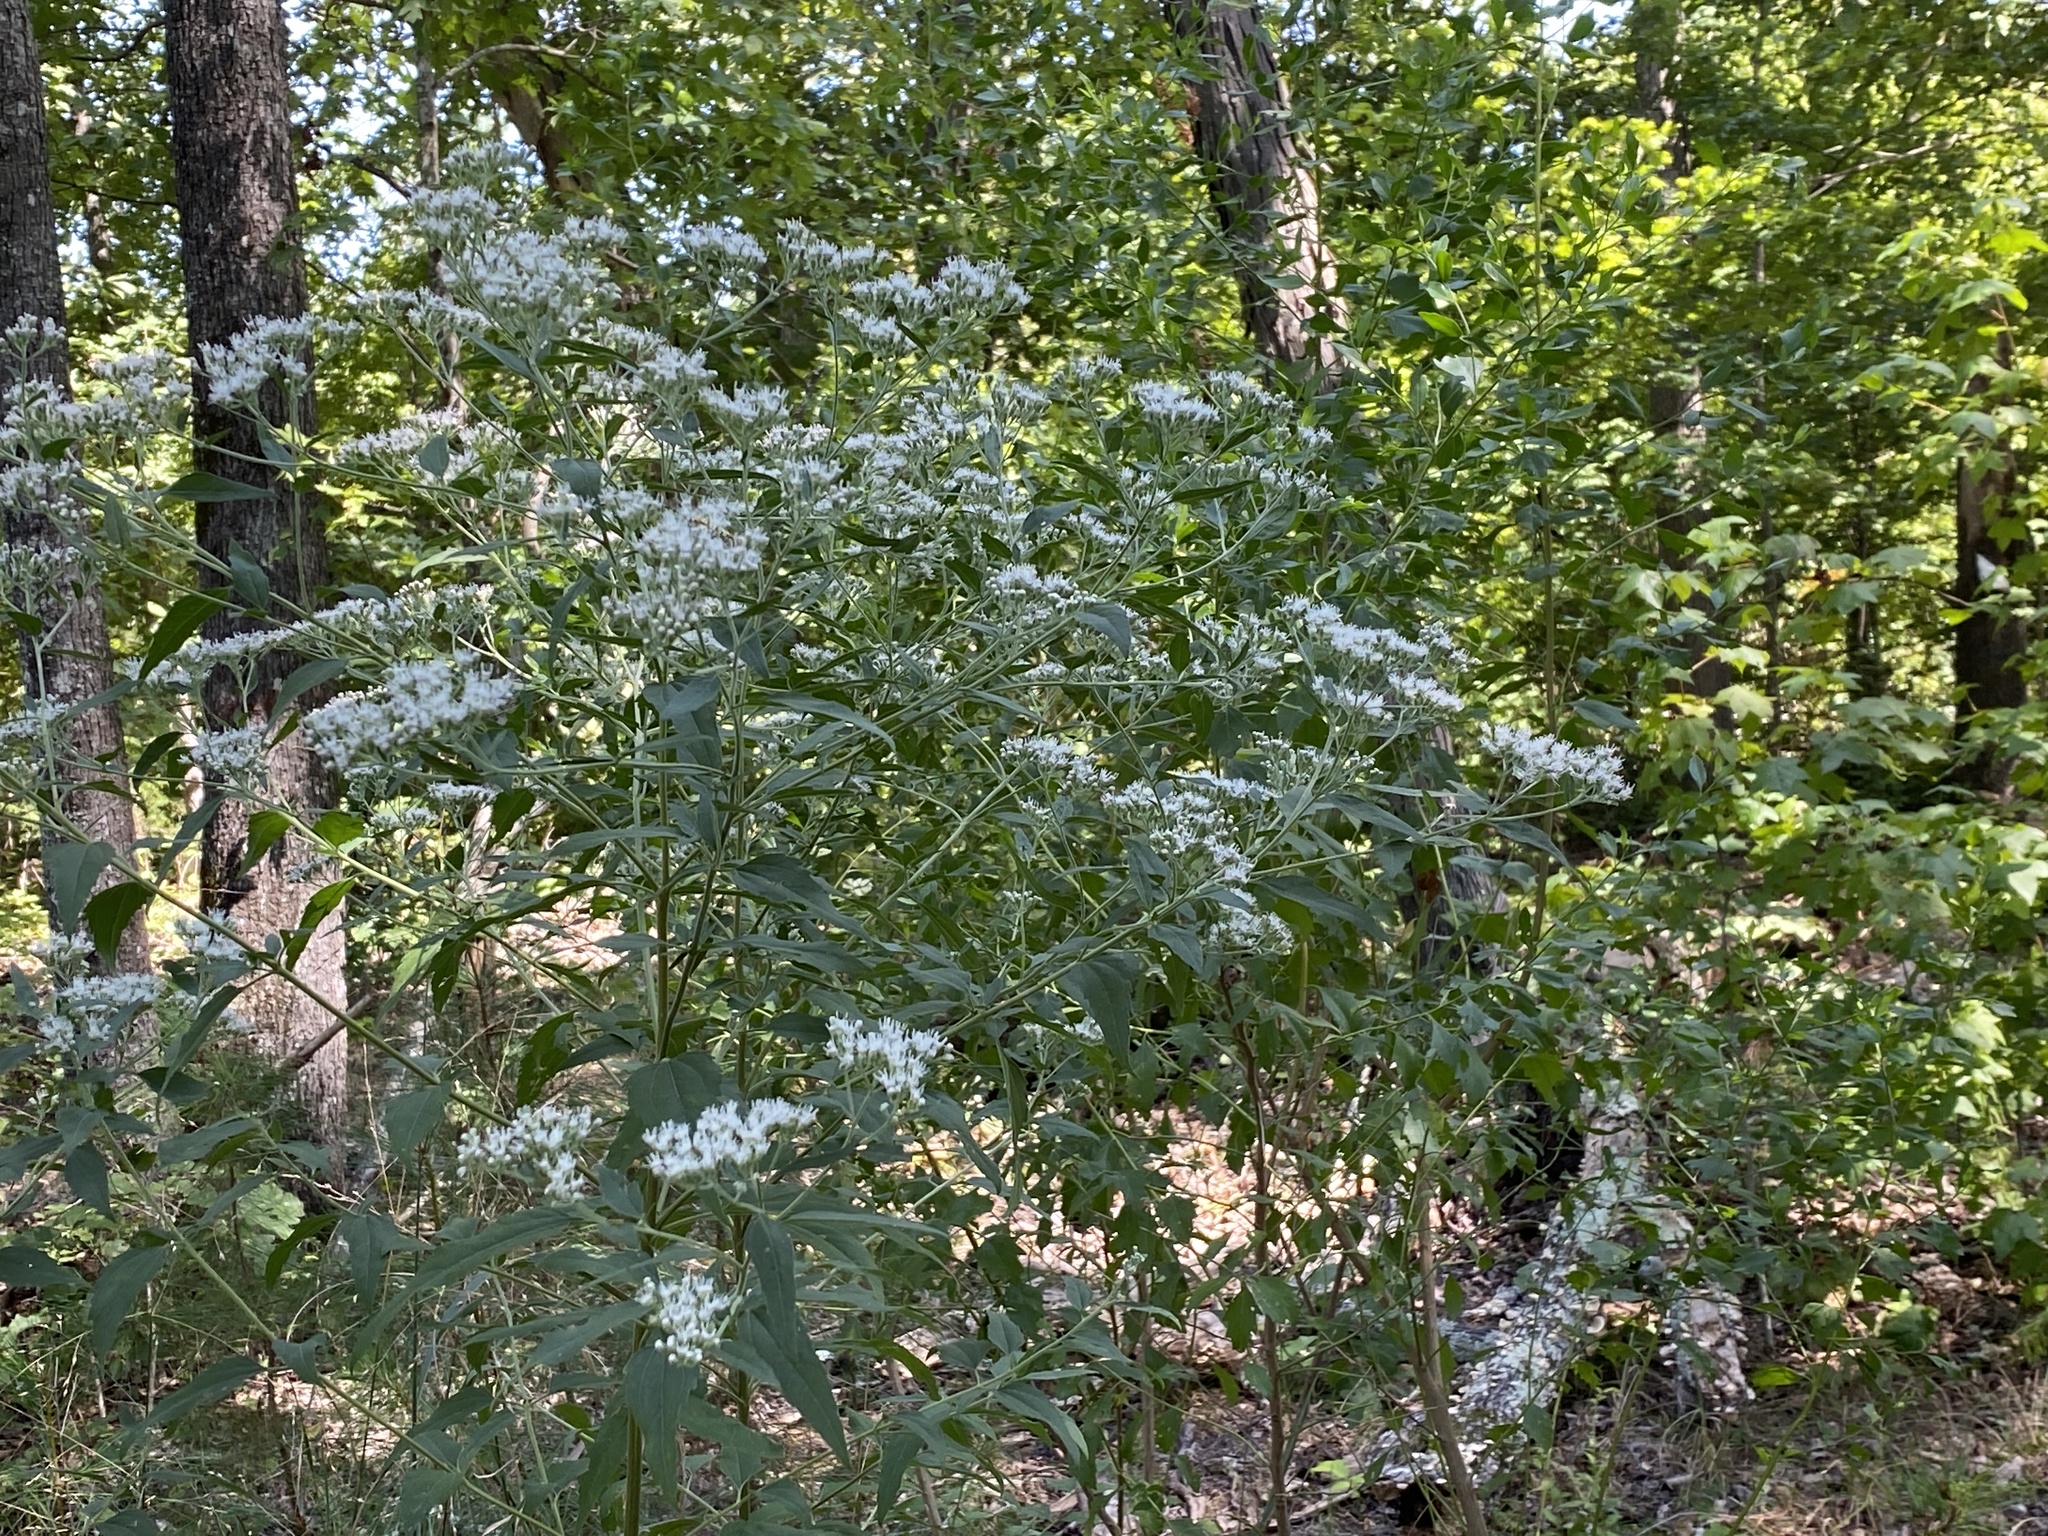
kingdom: Plantae
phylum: Tracheophyta
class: Magnoliopsida
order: Asterales
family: Asteraceae
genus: Eupatorium
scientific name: Eupatorium serotinum
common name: Late boneset
